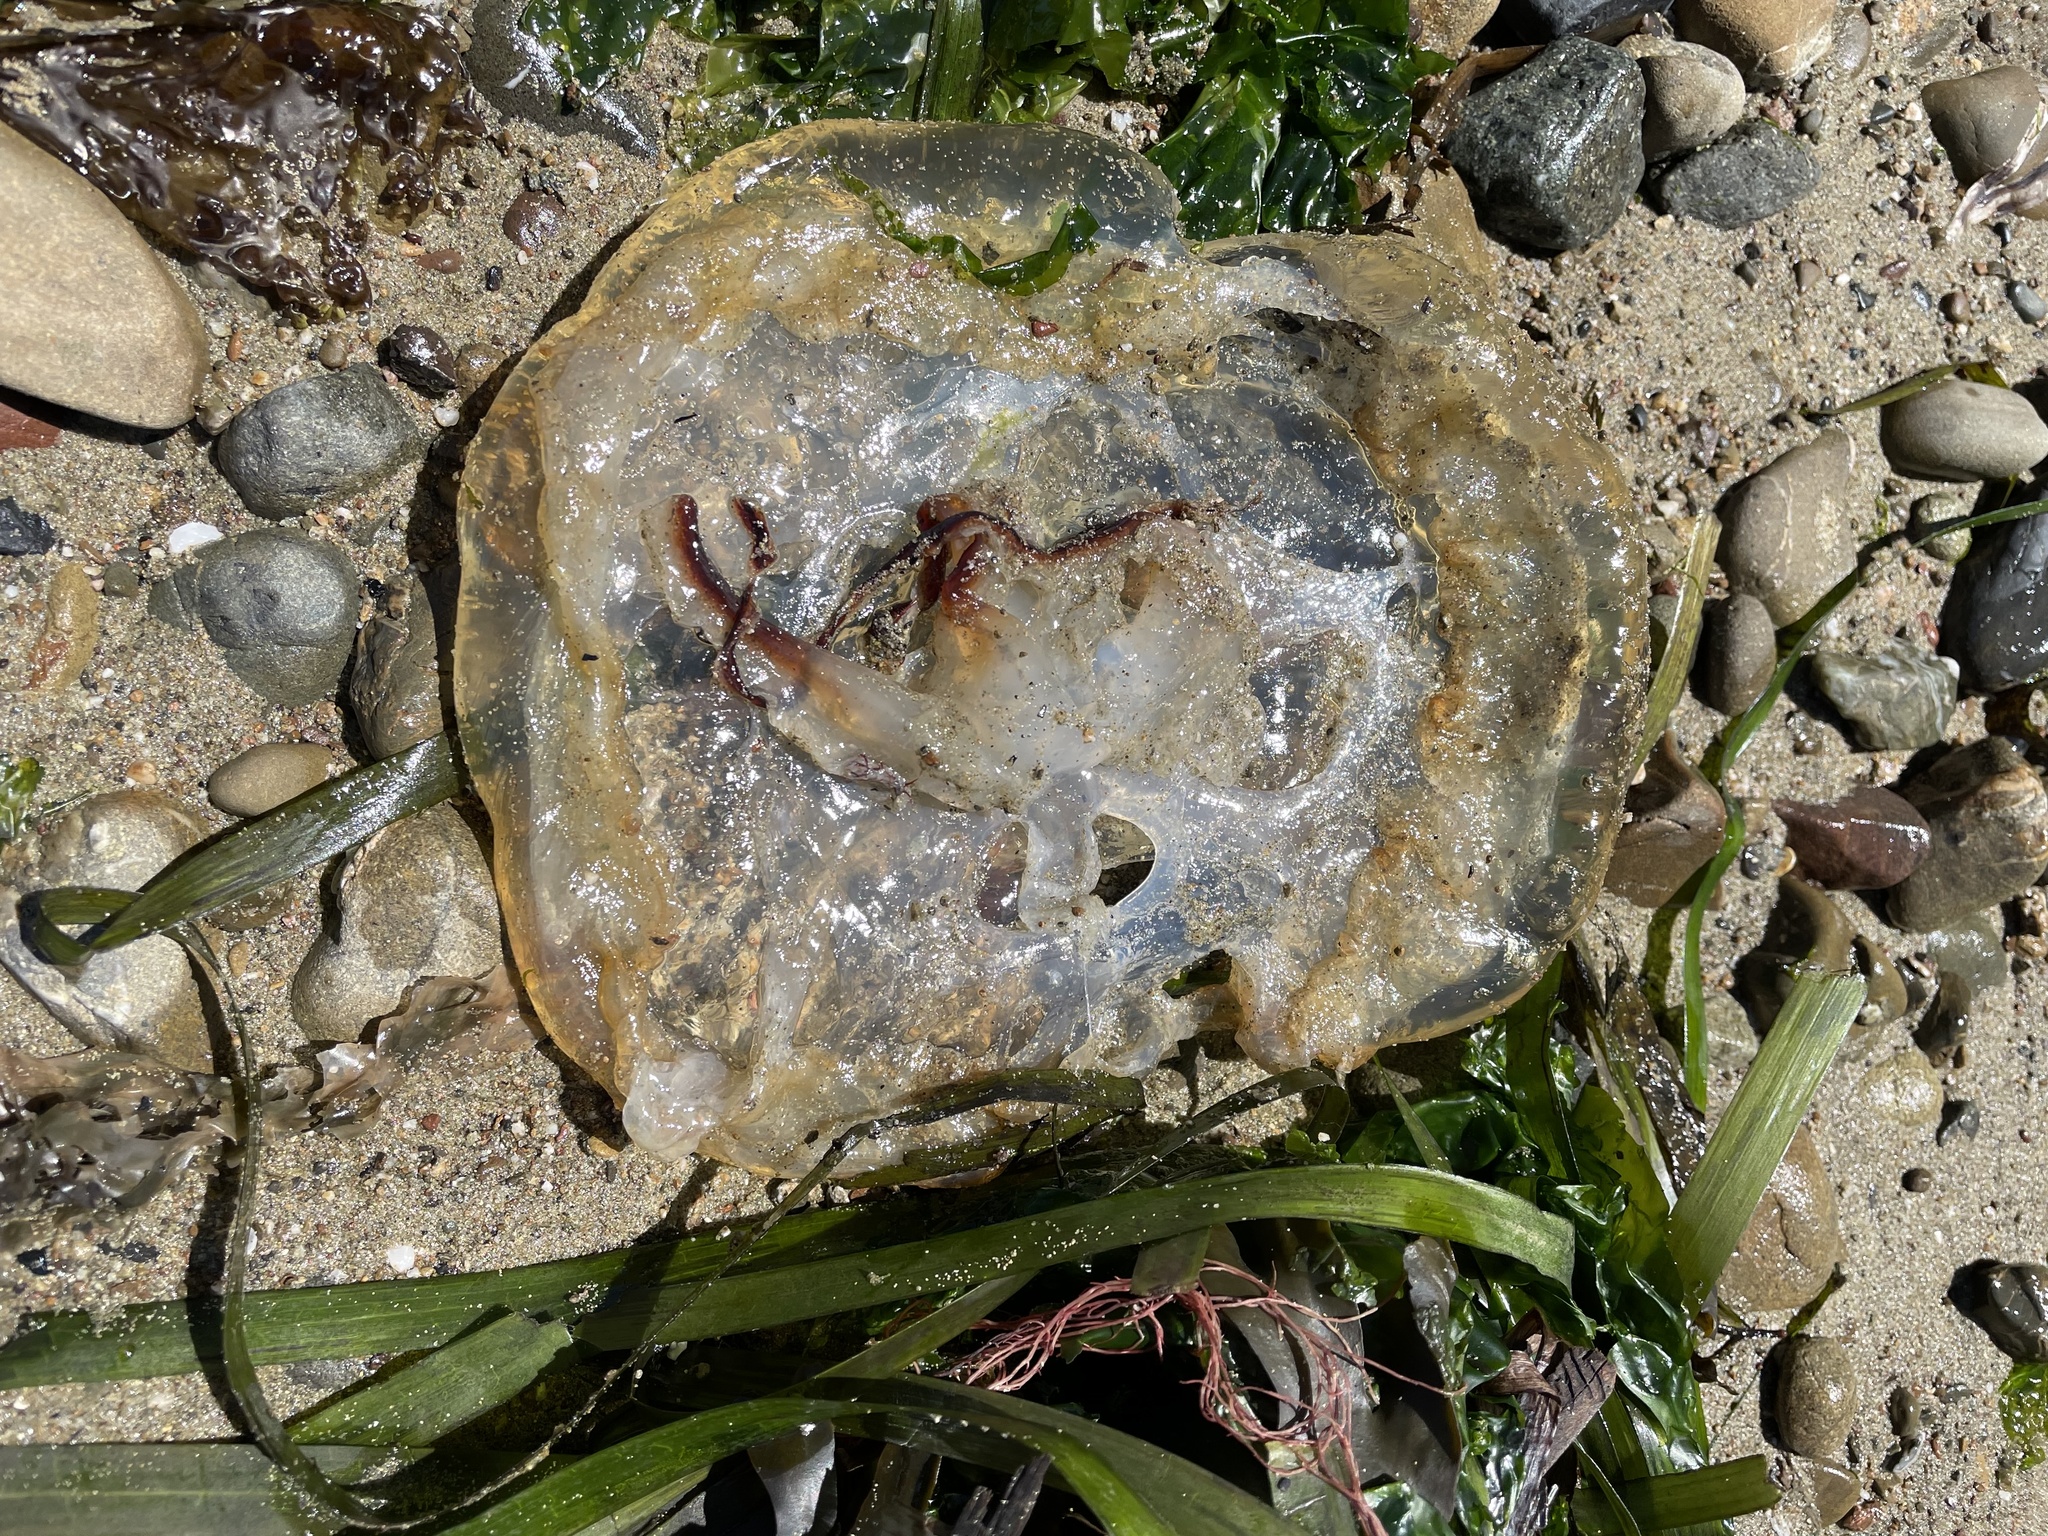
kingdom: Animalia
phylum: Cnidaria
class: Scyphozoa
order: Semaeostomeae
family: Pelagiidae
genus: Chrysaora
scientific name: Chrysaora fuscescens
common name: Sea nettle
